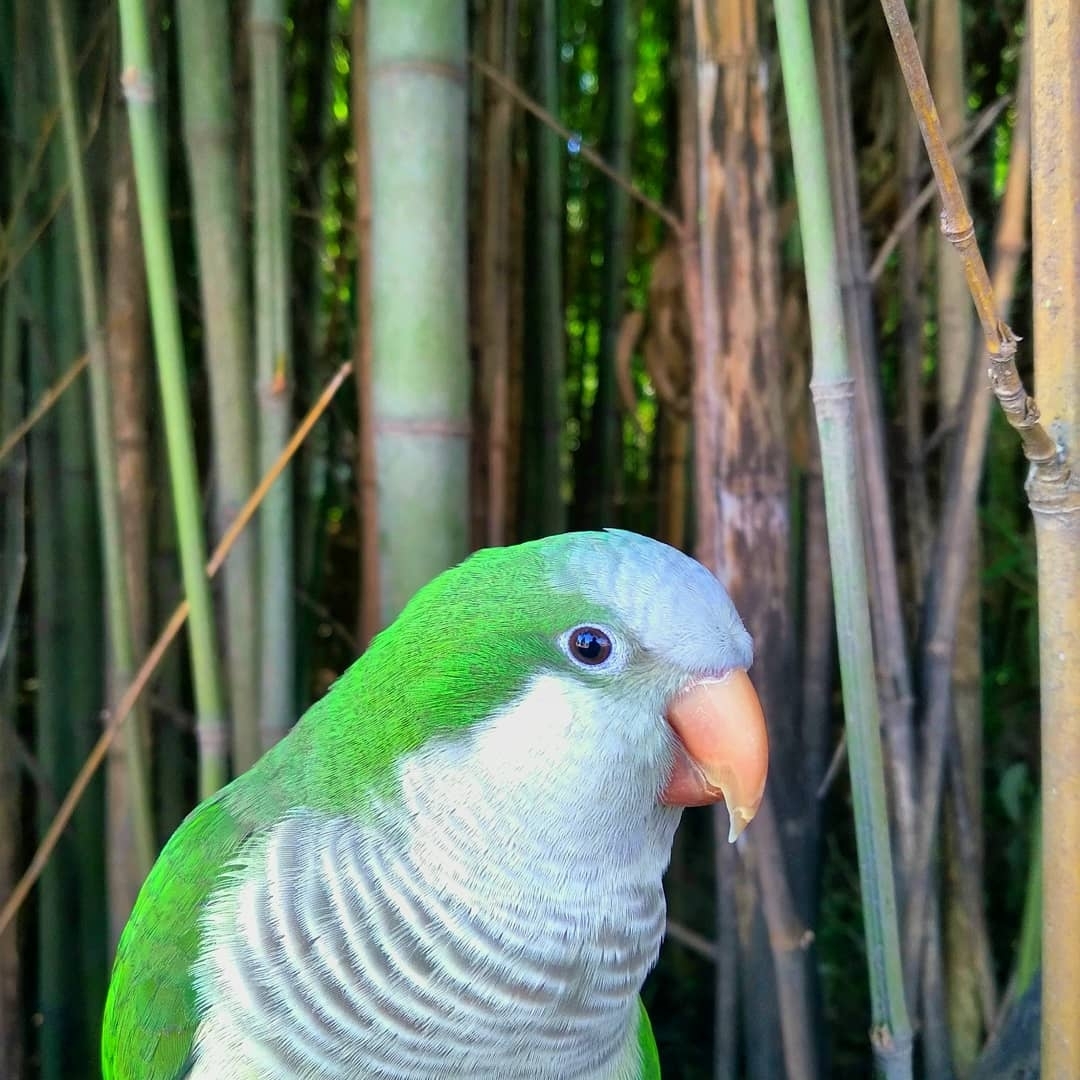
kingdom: Animalia
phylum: Chordata
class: Aves
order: Psittaciformes
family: Psittacidae
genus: Myiopsitta
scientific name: Myiopsitta monachus
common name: Monk parakeet
